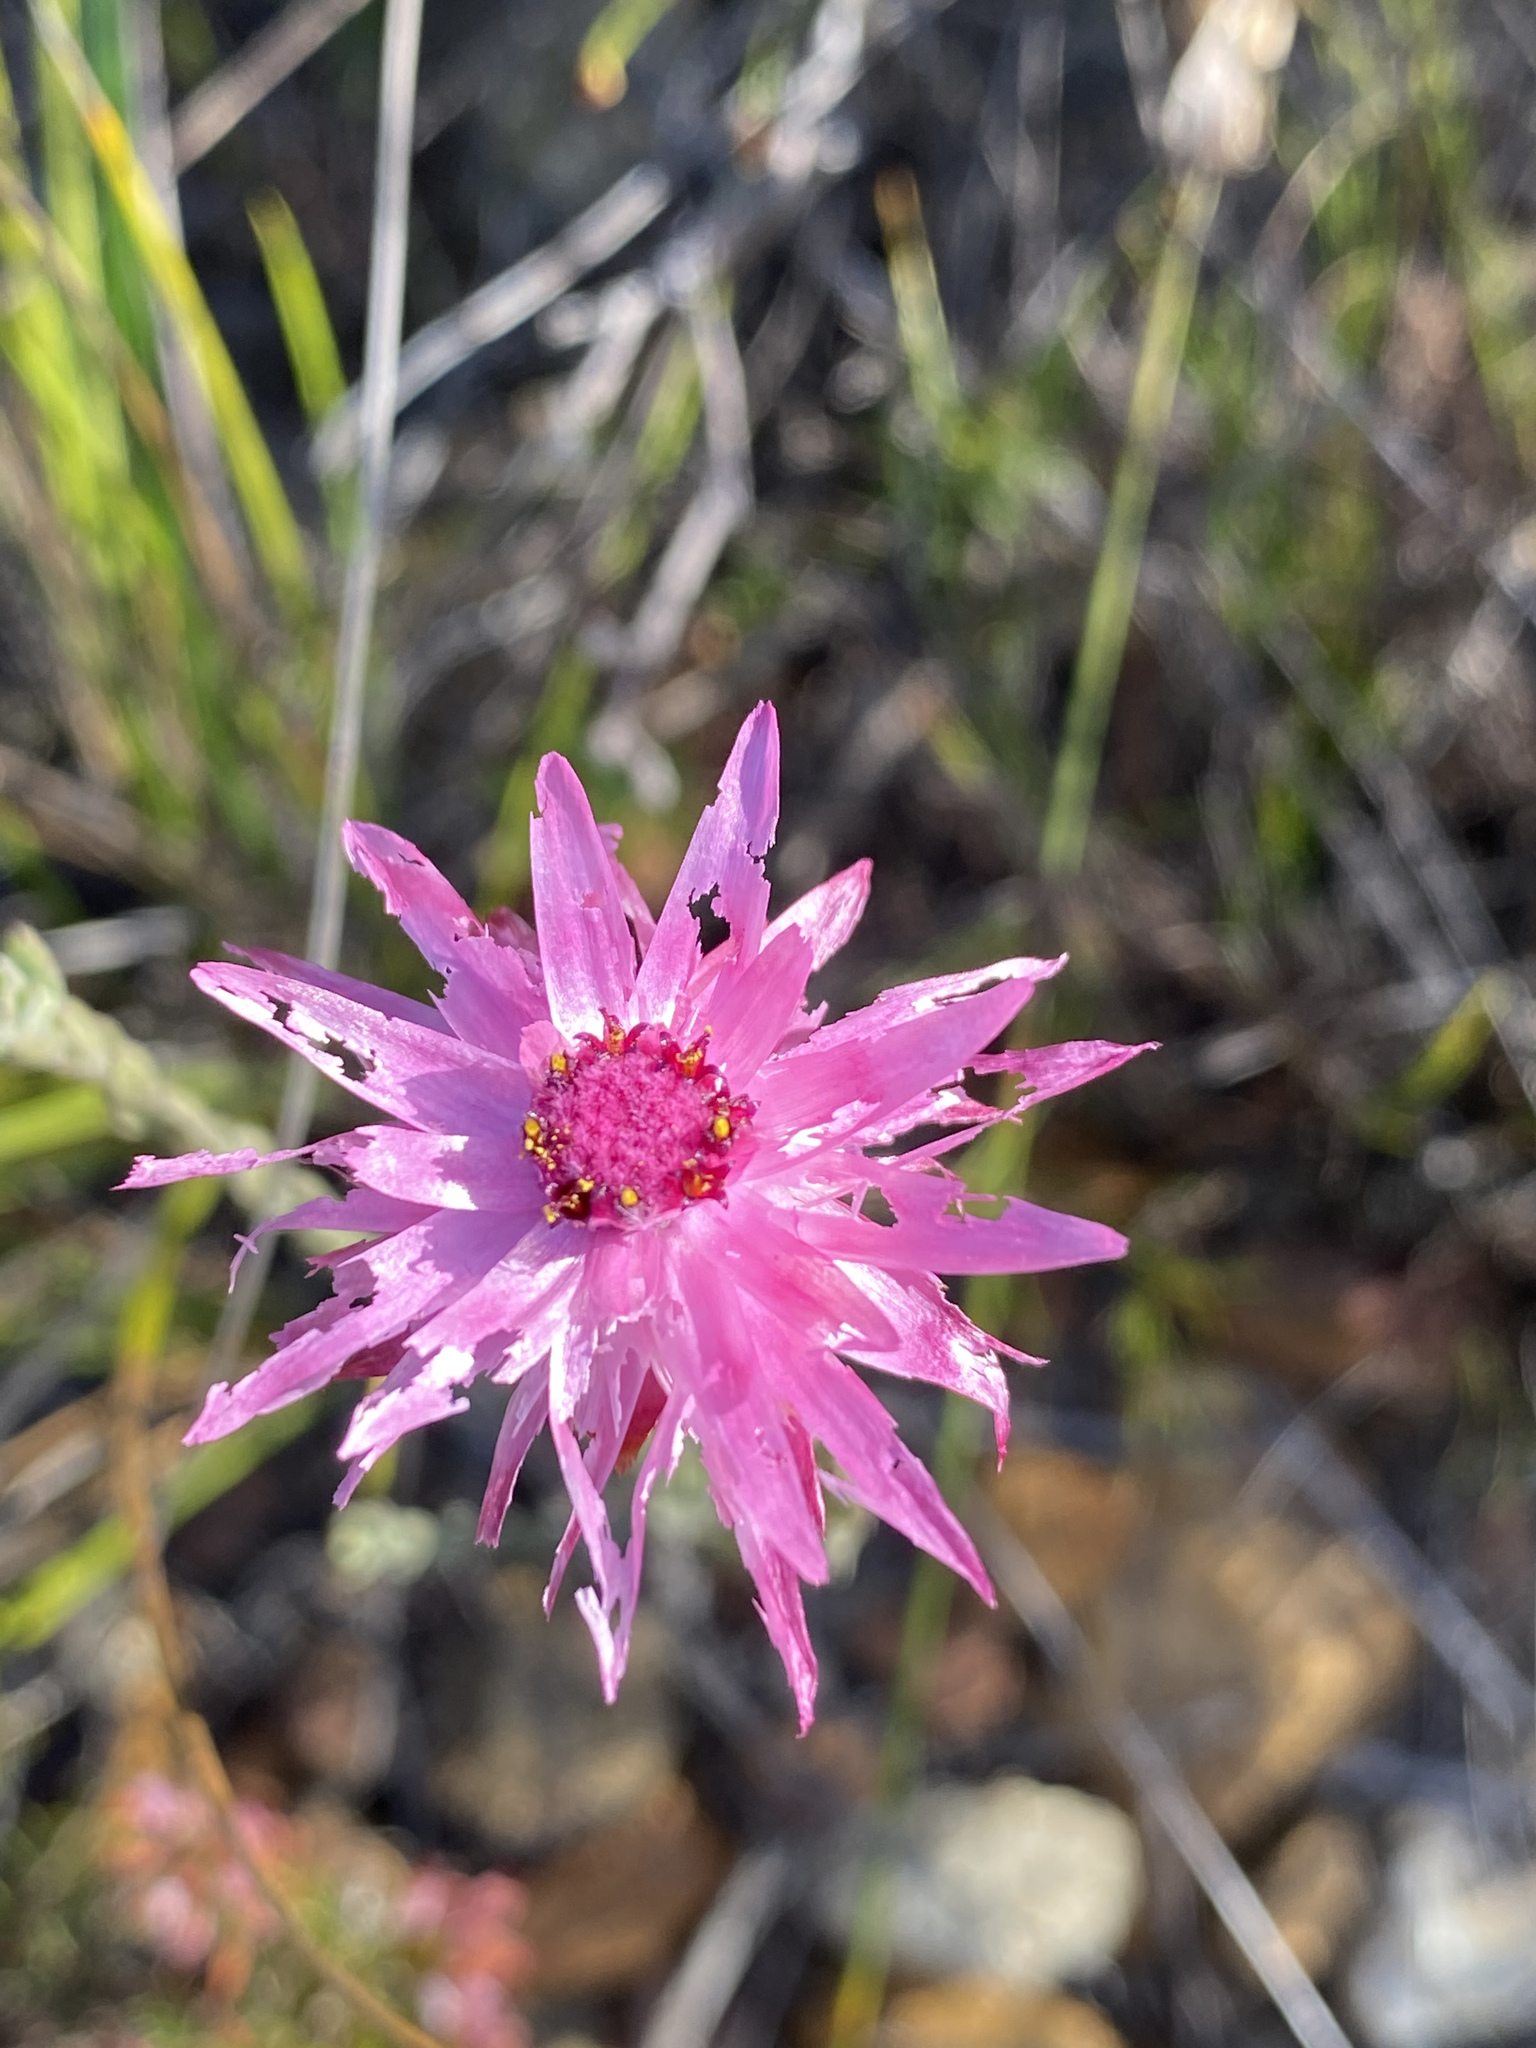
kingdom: Plantae
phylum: Tracheophyta
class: Magnoliopsida
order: Asterales
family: Asteraceae
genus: Syncarpha
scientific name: Syncarpha canescens
